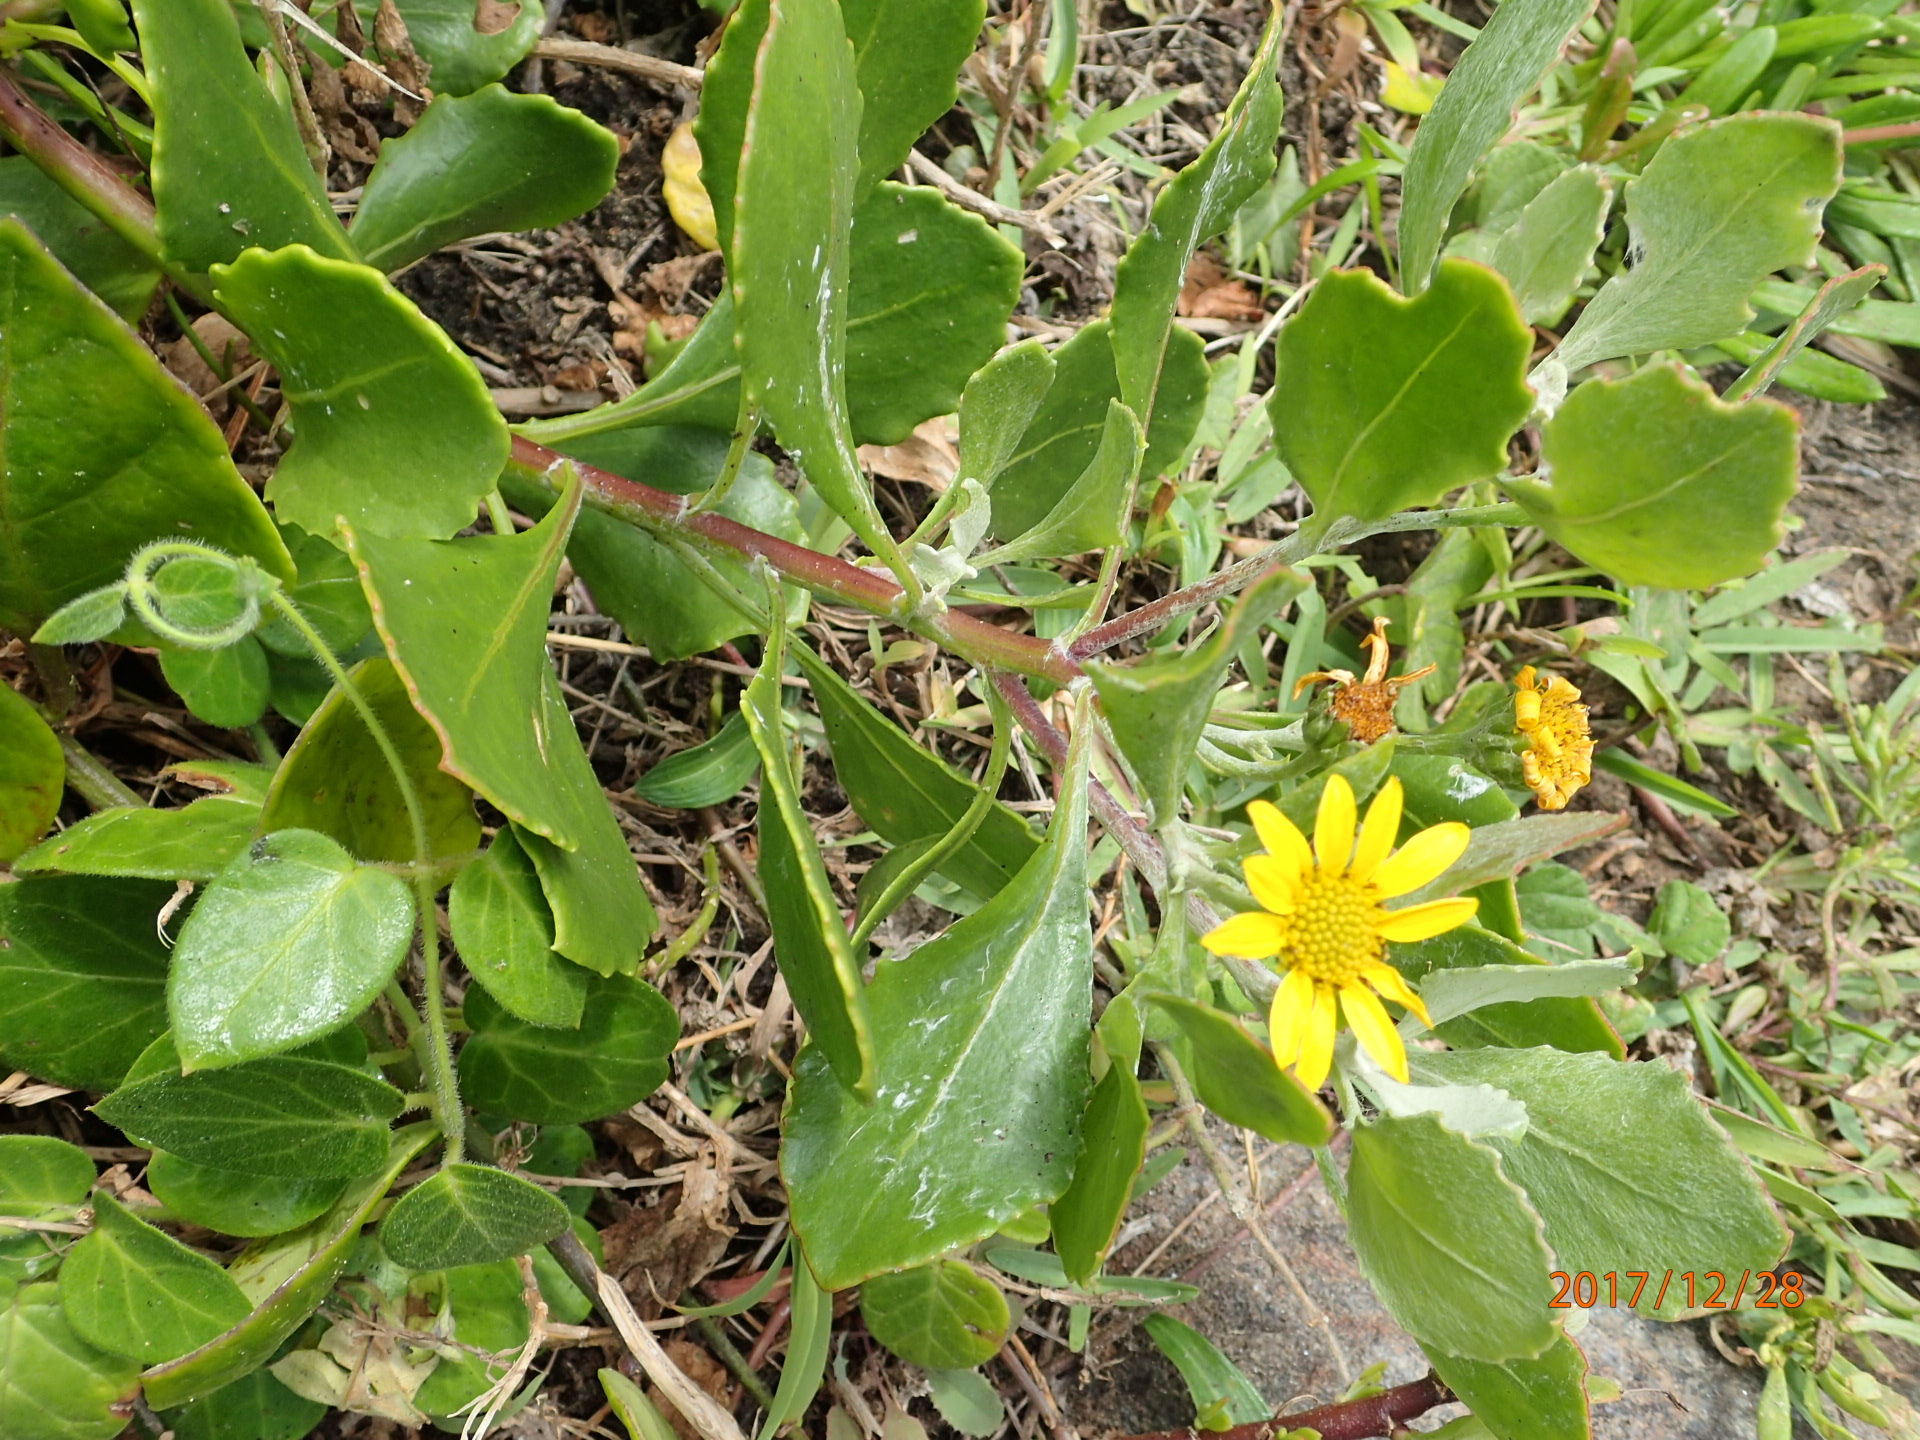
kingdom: Plantae
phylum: Tracheophyta
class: Magnoliopsida
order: Asterales
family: Asteraceae
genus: Osteospermum
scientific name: Osteospermum moniliferum
